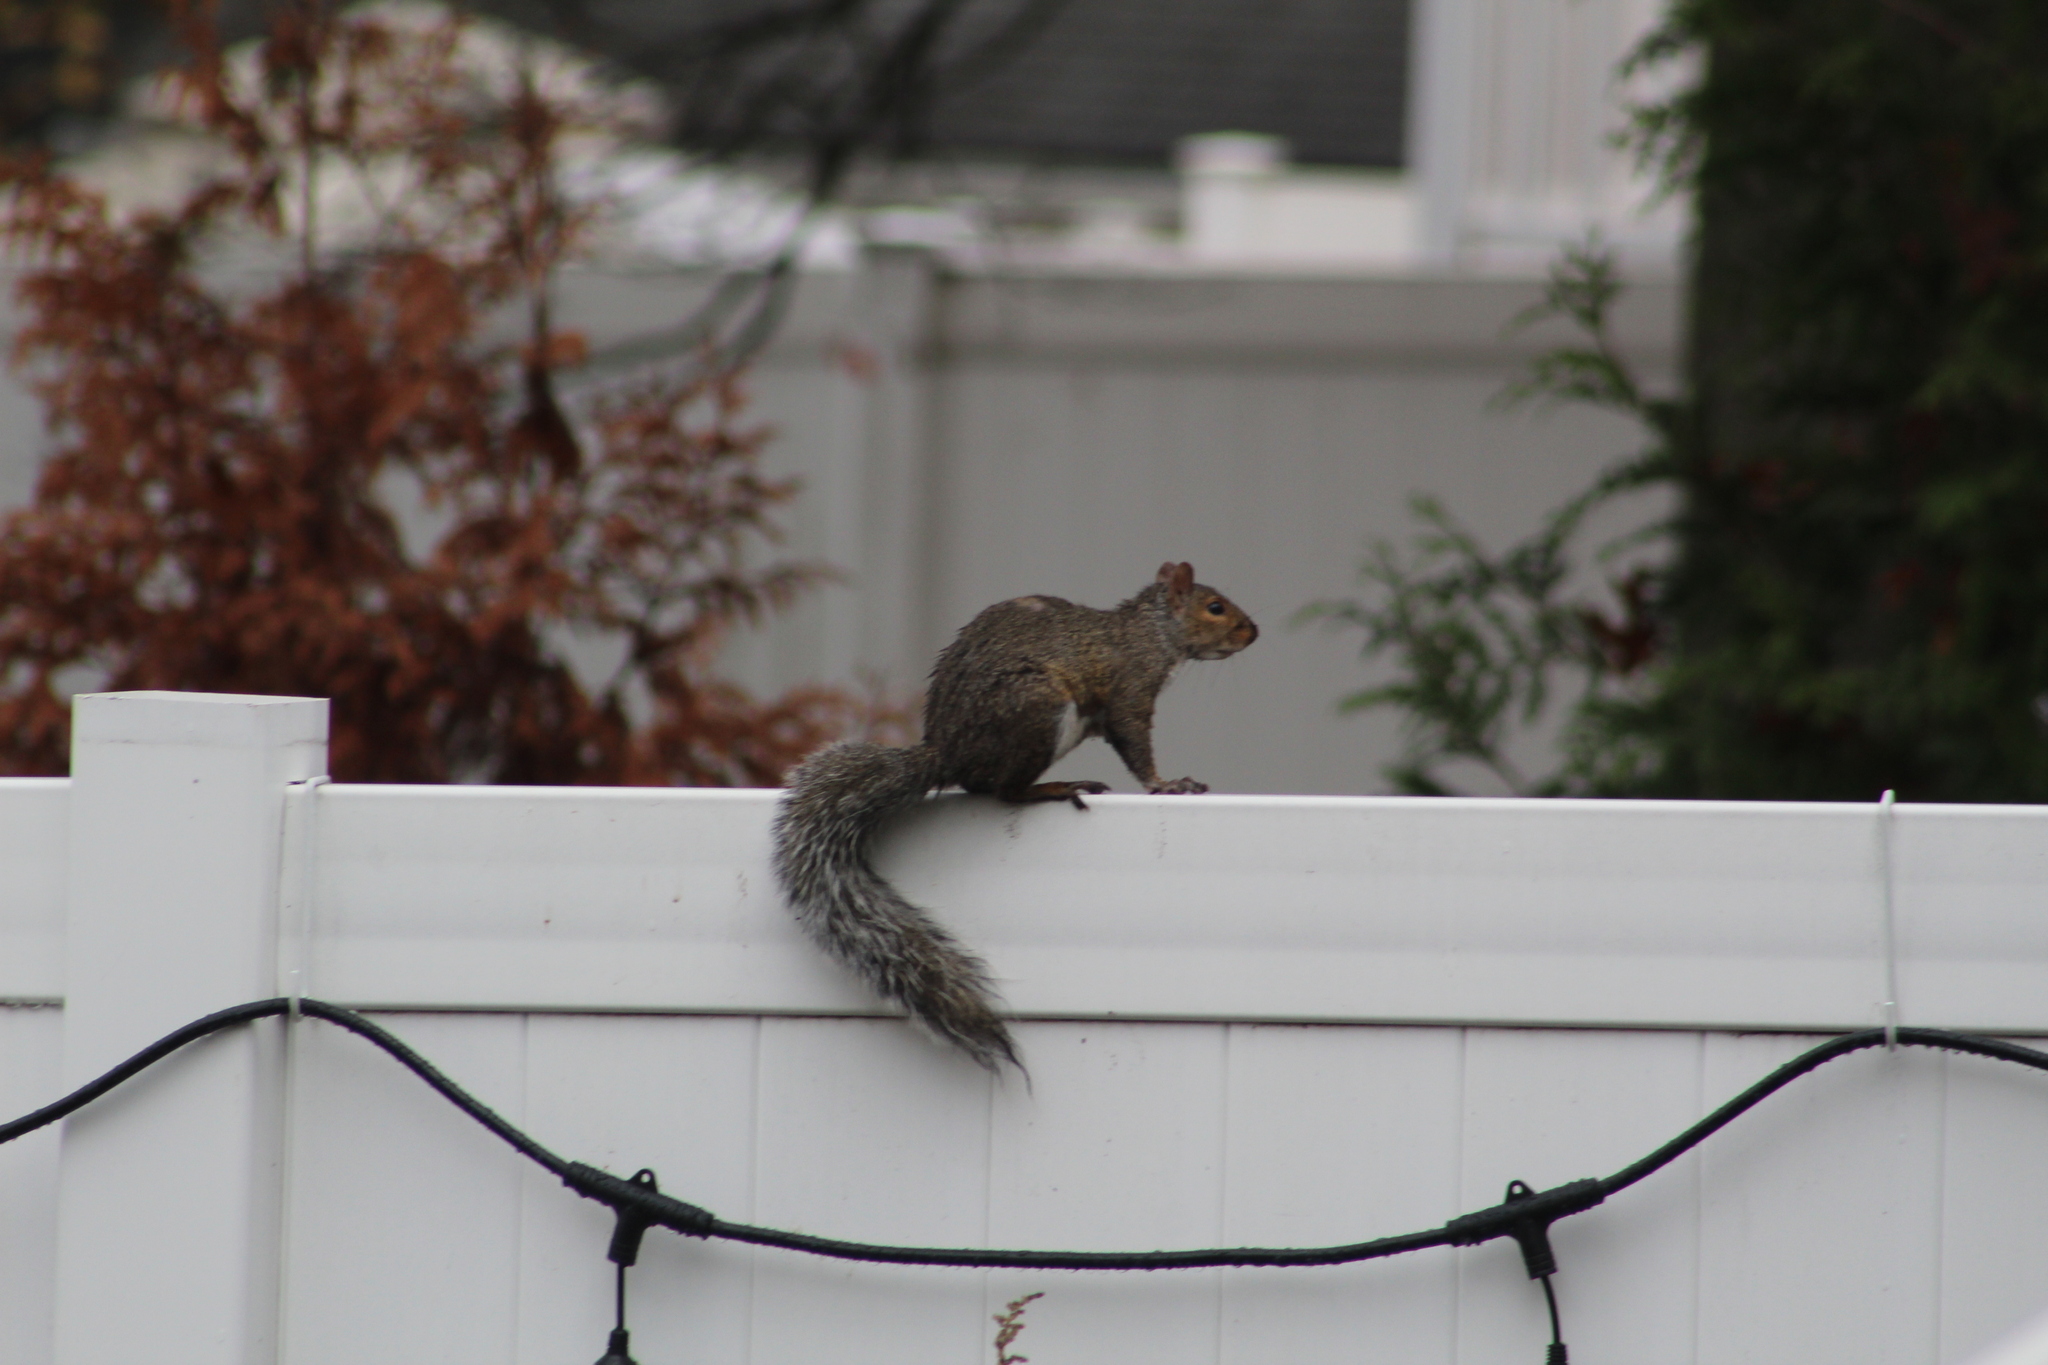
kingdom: Animalia
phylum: Chordata
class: Mammalia
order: Rodentia
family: Sciuridae
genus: Sciurus
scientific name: Sciurus carolinensis
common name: Eastern gray squirrel
